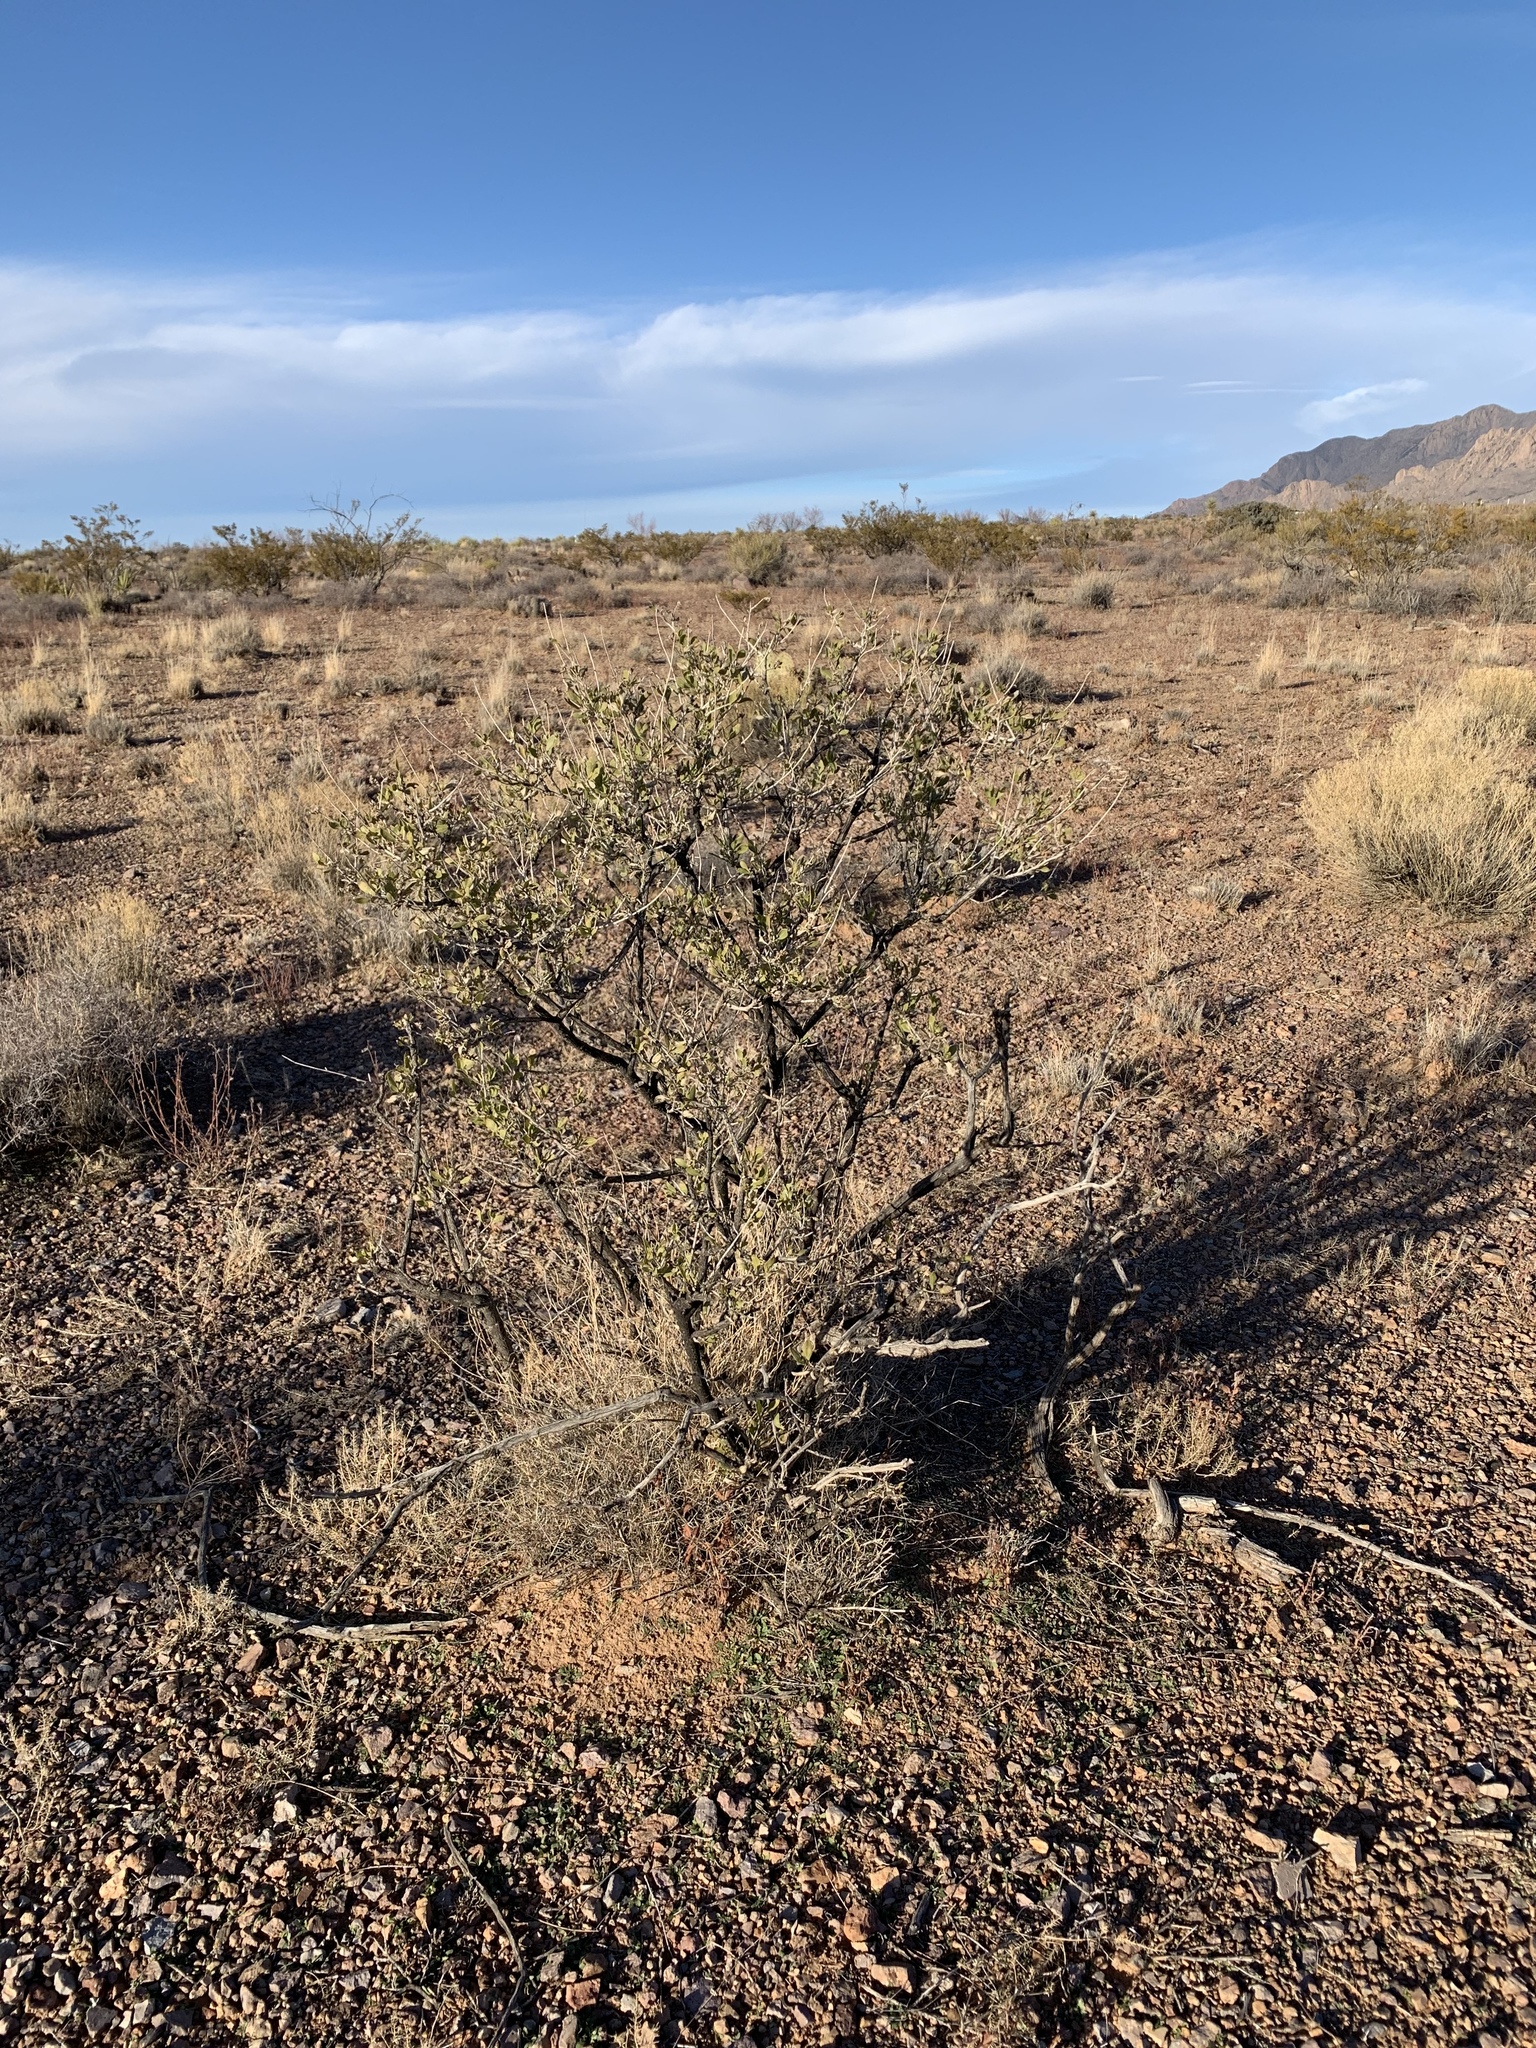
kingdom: Plantae
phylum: Tracheophyta
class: Magnoliopsida
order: Asterales
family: Asteraceae
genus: Flourensia
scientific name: Flourensia cernua
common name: Varnishbush
